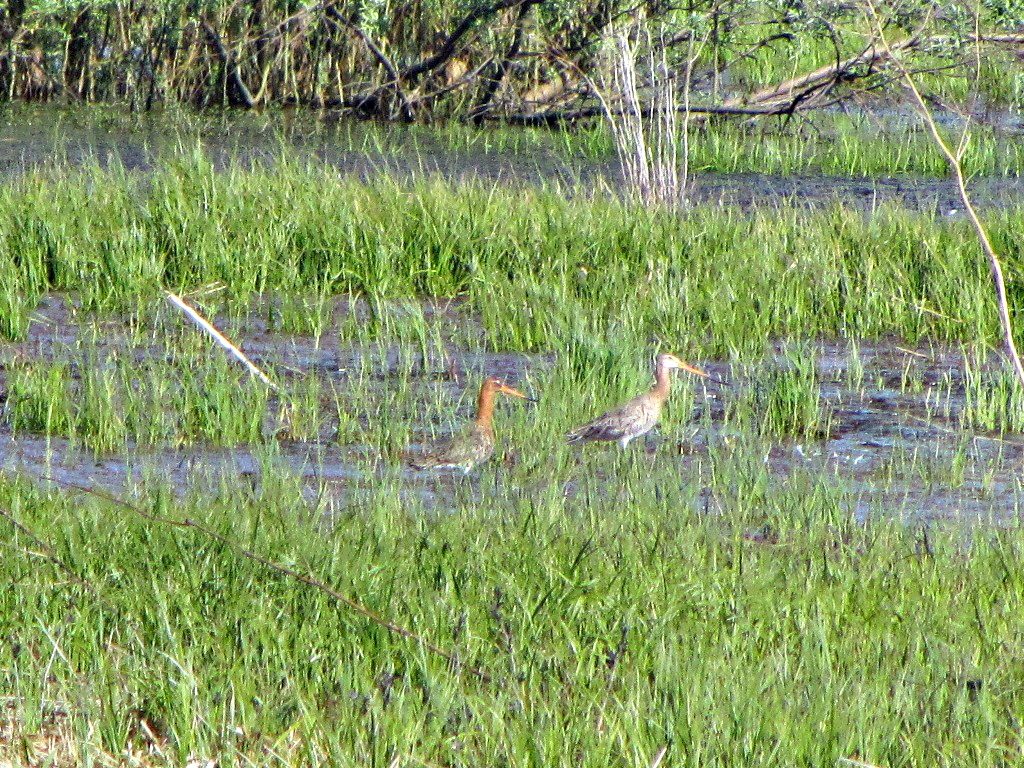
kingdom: Animalia
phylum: Chordata
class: Aves
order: Charadriiformes
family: Scolopacidae
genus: Limosa
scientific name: Limosa limosa
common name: Black-tailed godwit
